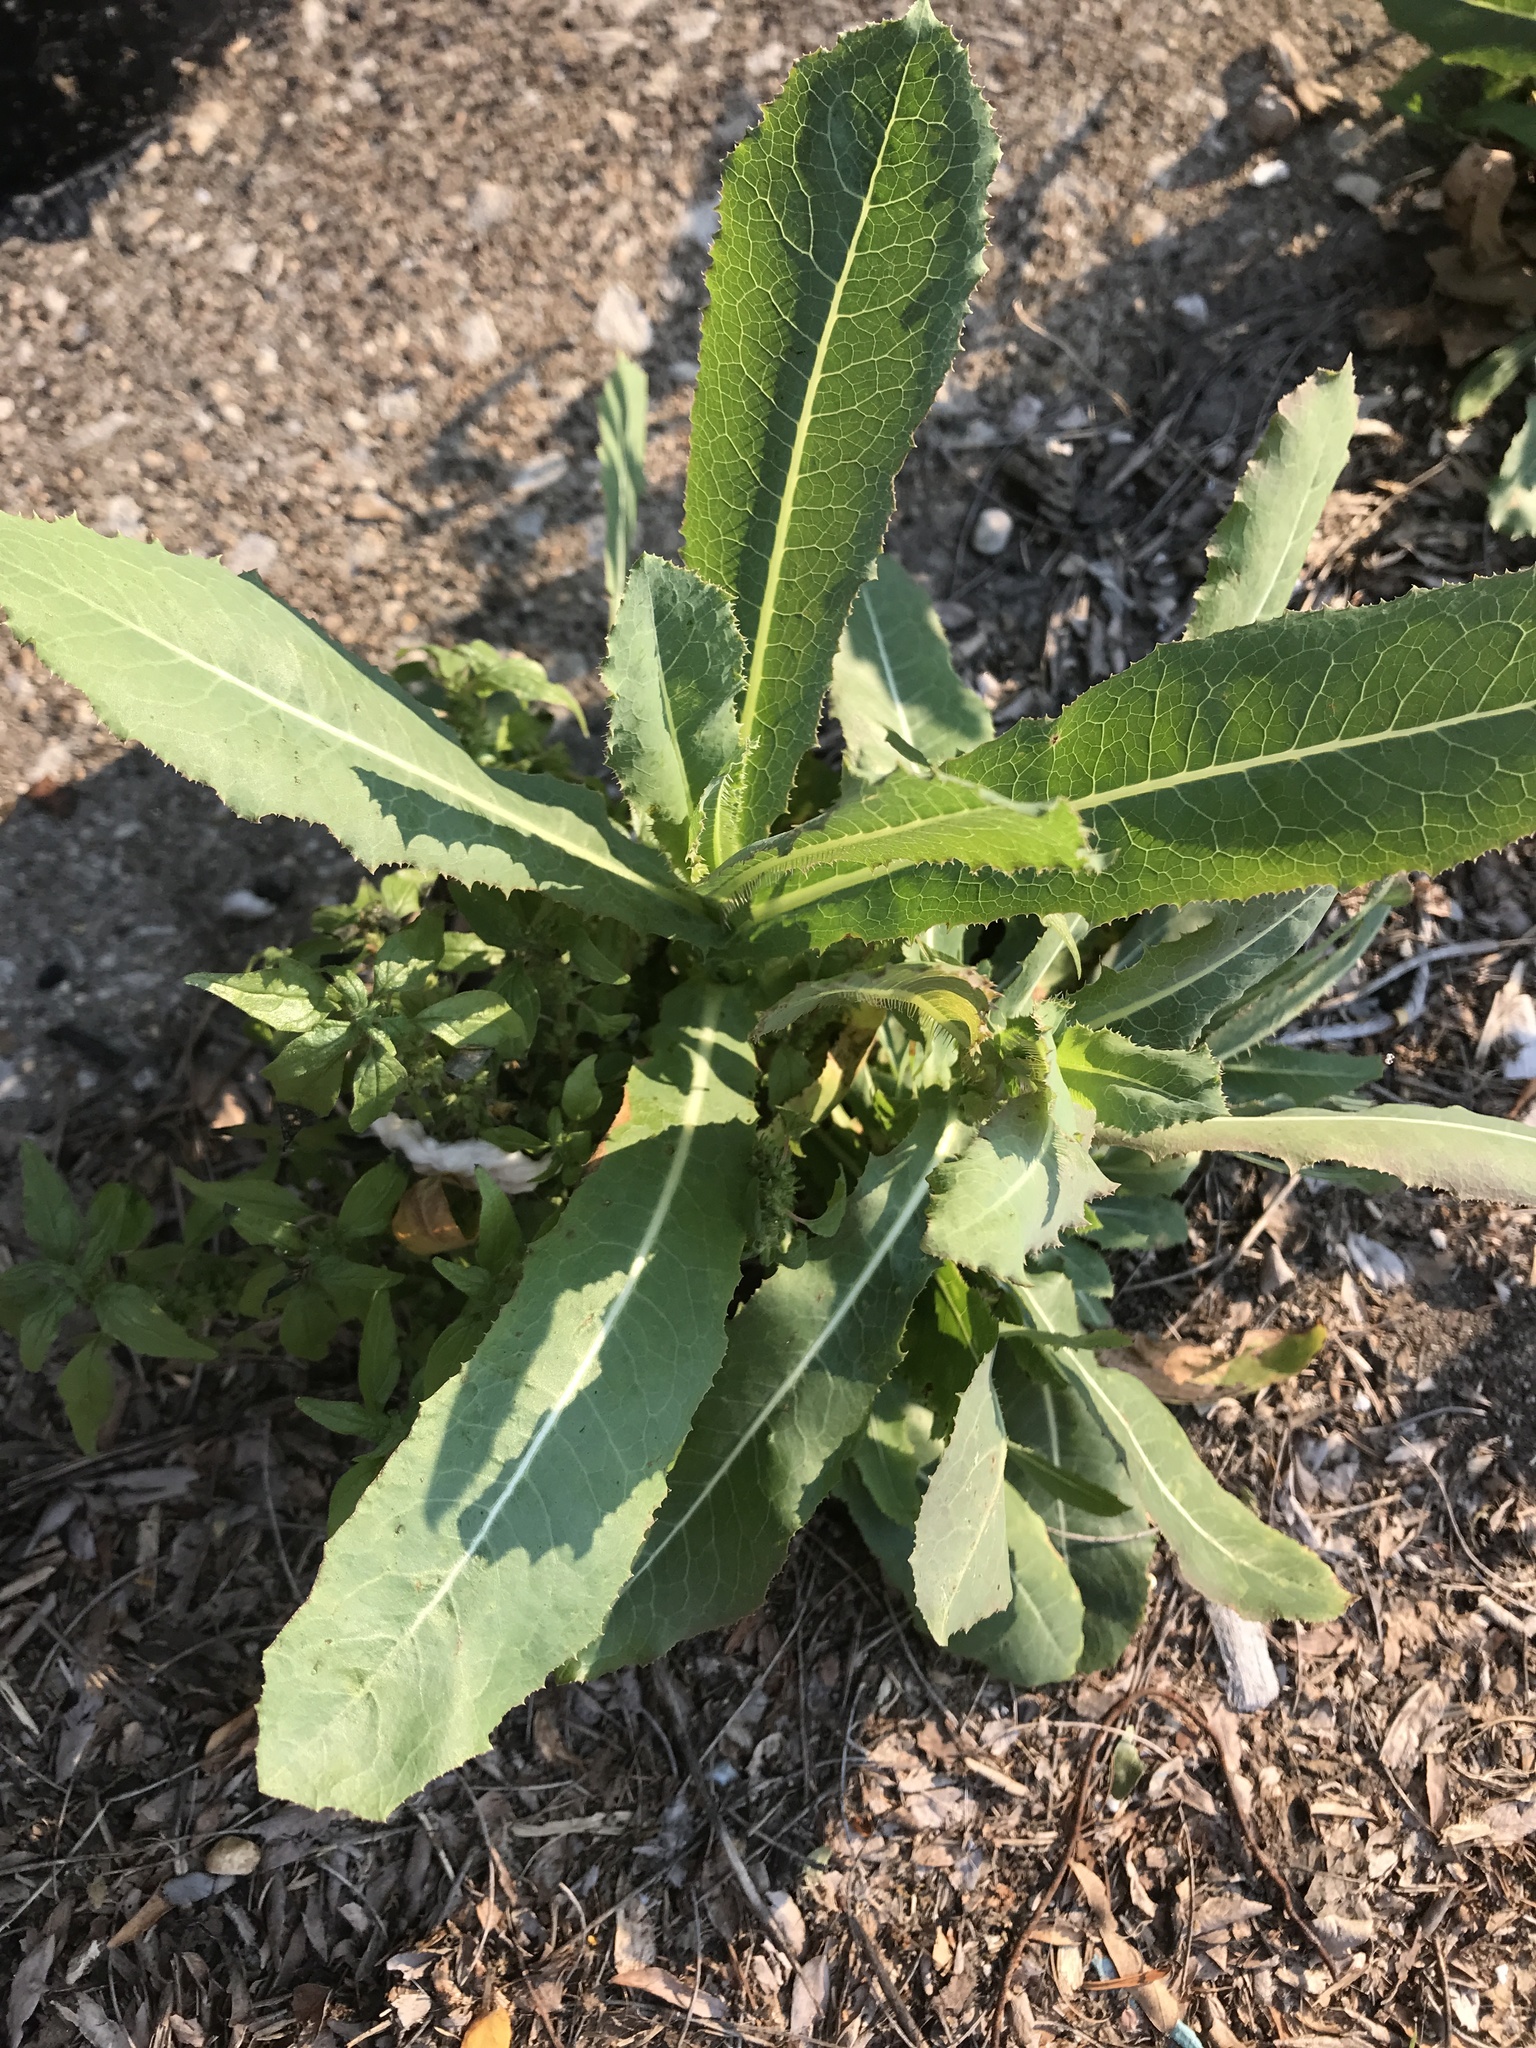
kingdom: Plantae
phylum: Tracheophyta
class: Magnoliopsida
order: Asterales
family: Asteraceae
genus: Lactuca
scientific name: Lactuca serriola
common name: Prickly lettuce
